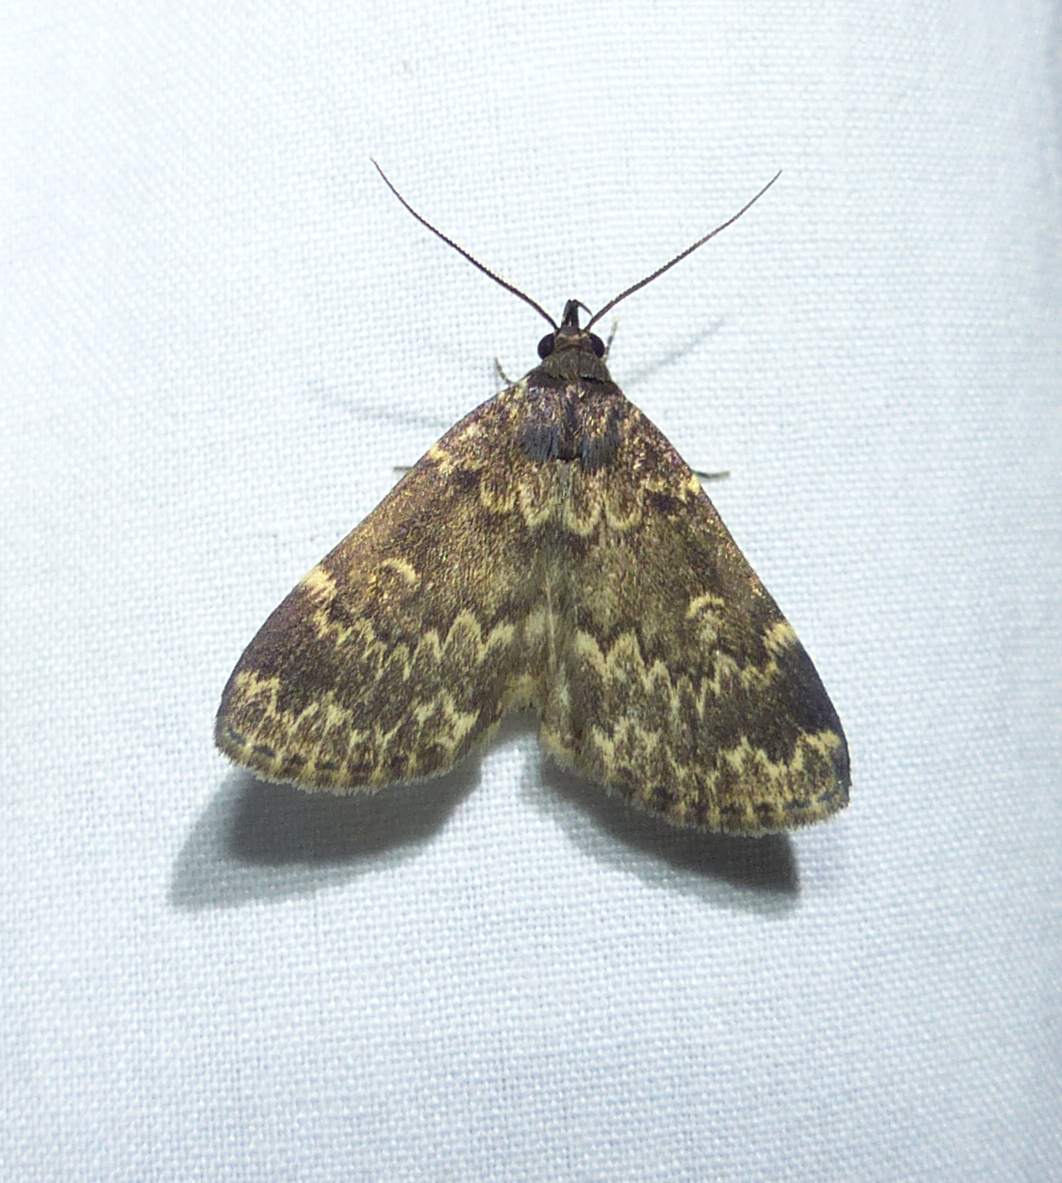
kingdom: Animalia
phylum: Arthropoda
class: Insecta
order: Lepidoptera
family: Erebidae
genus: Idia
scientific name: Idia lubricalis
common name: Twin-striped tabby
